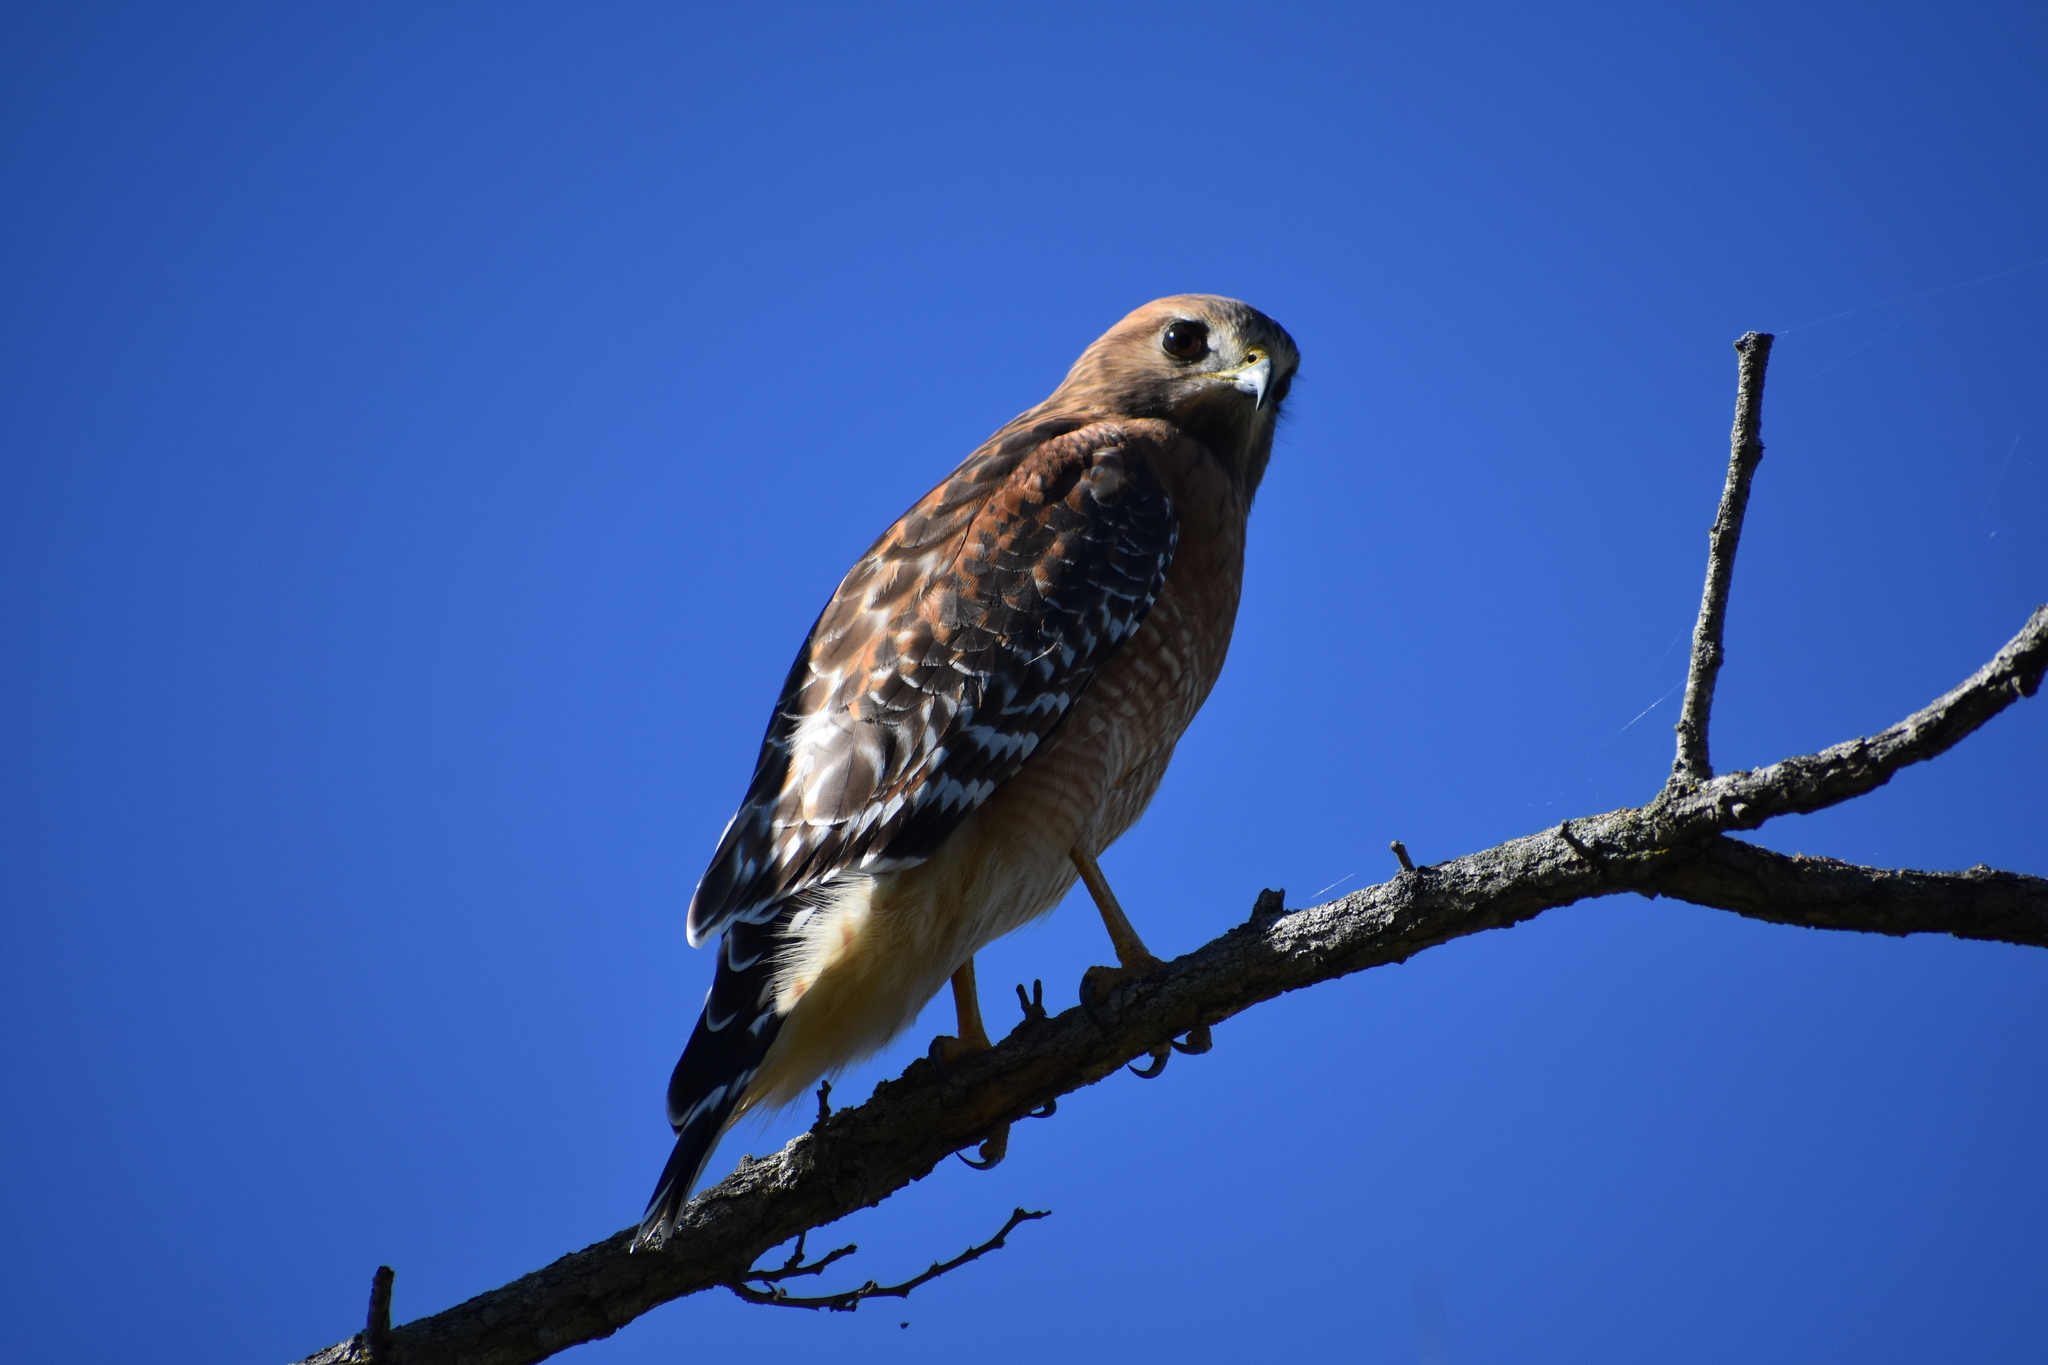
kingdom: Animalia
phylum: Chordata
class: Aves
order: Accipitriformes
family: Accipitridae
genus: Buteo
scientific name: Buteo lineatus
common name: Red-shouldered hawk
